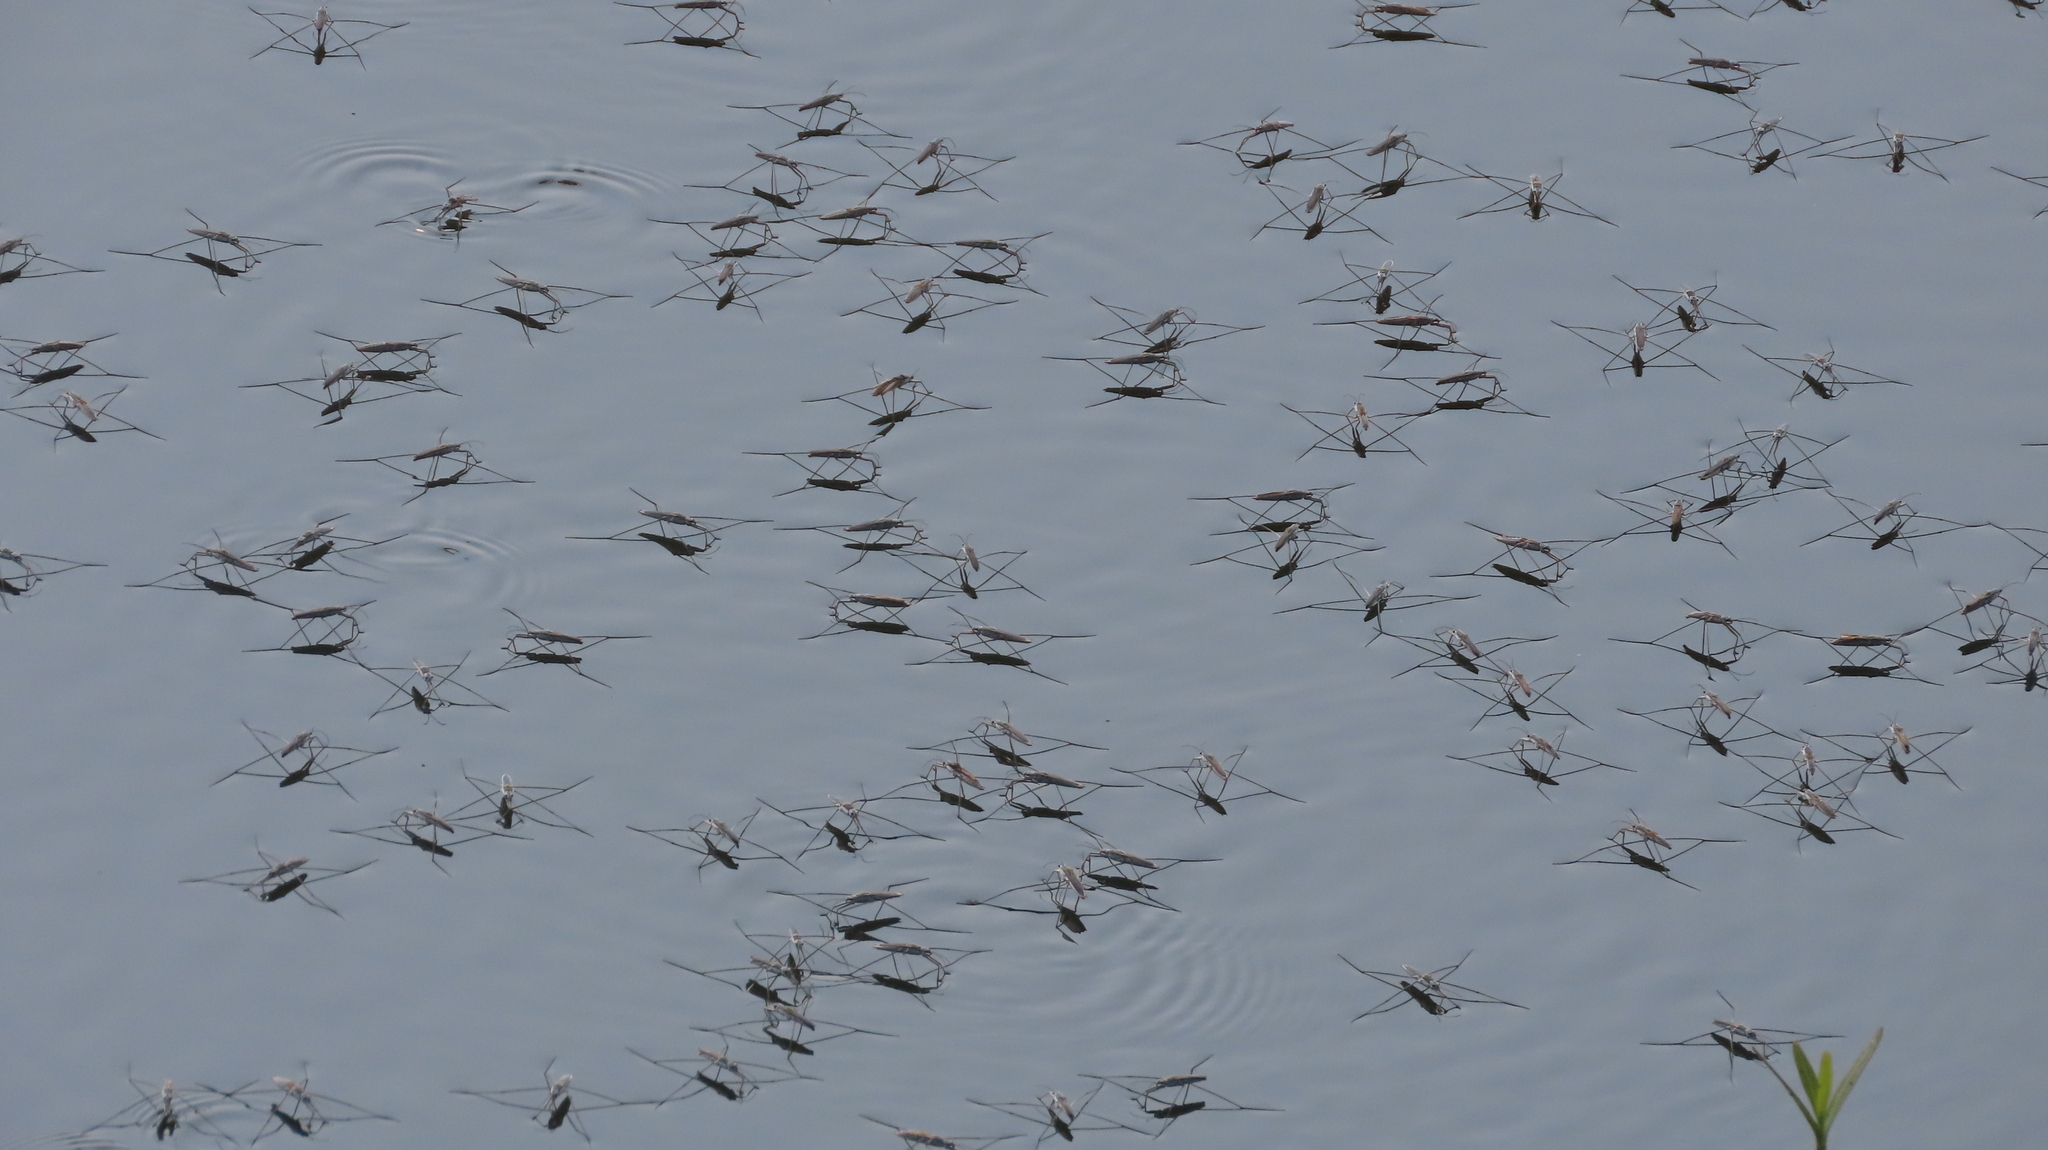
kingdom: Animalia
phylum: Arthropoda
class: Insecta
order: Hemiptera
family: Gerridae
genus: Aquarius
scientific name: Aquarius adelaidis
